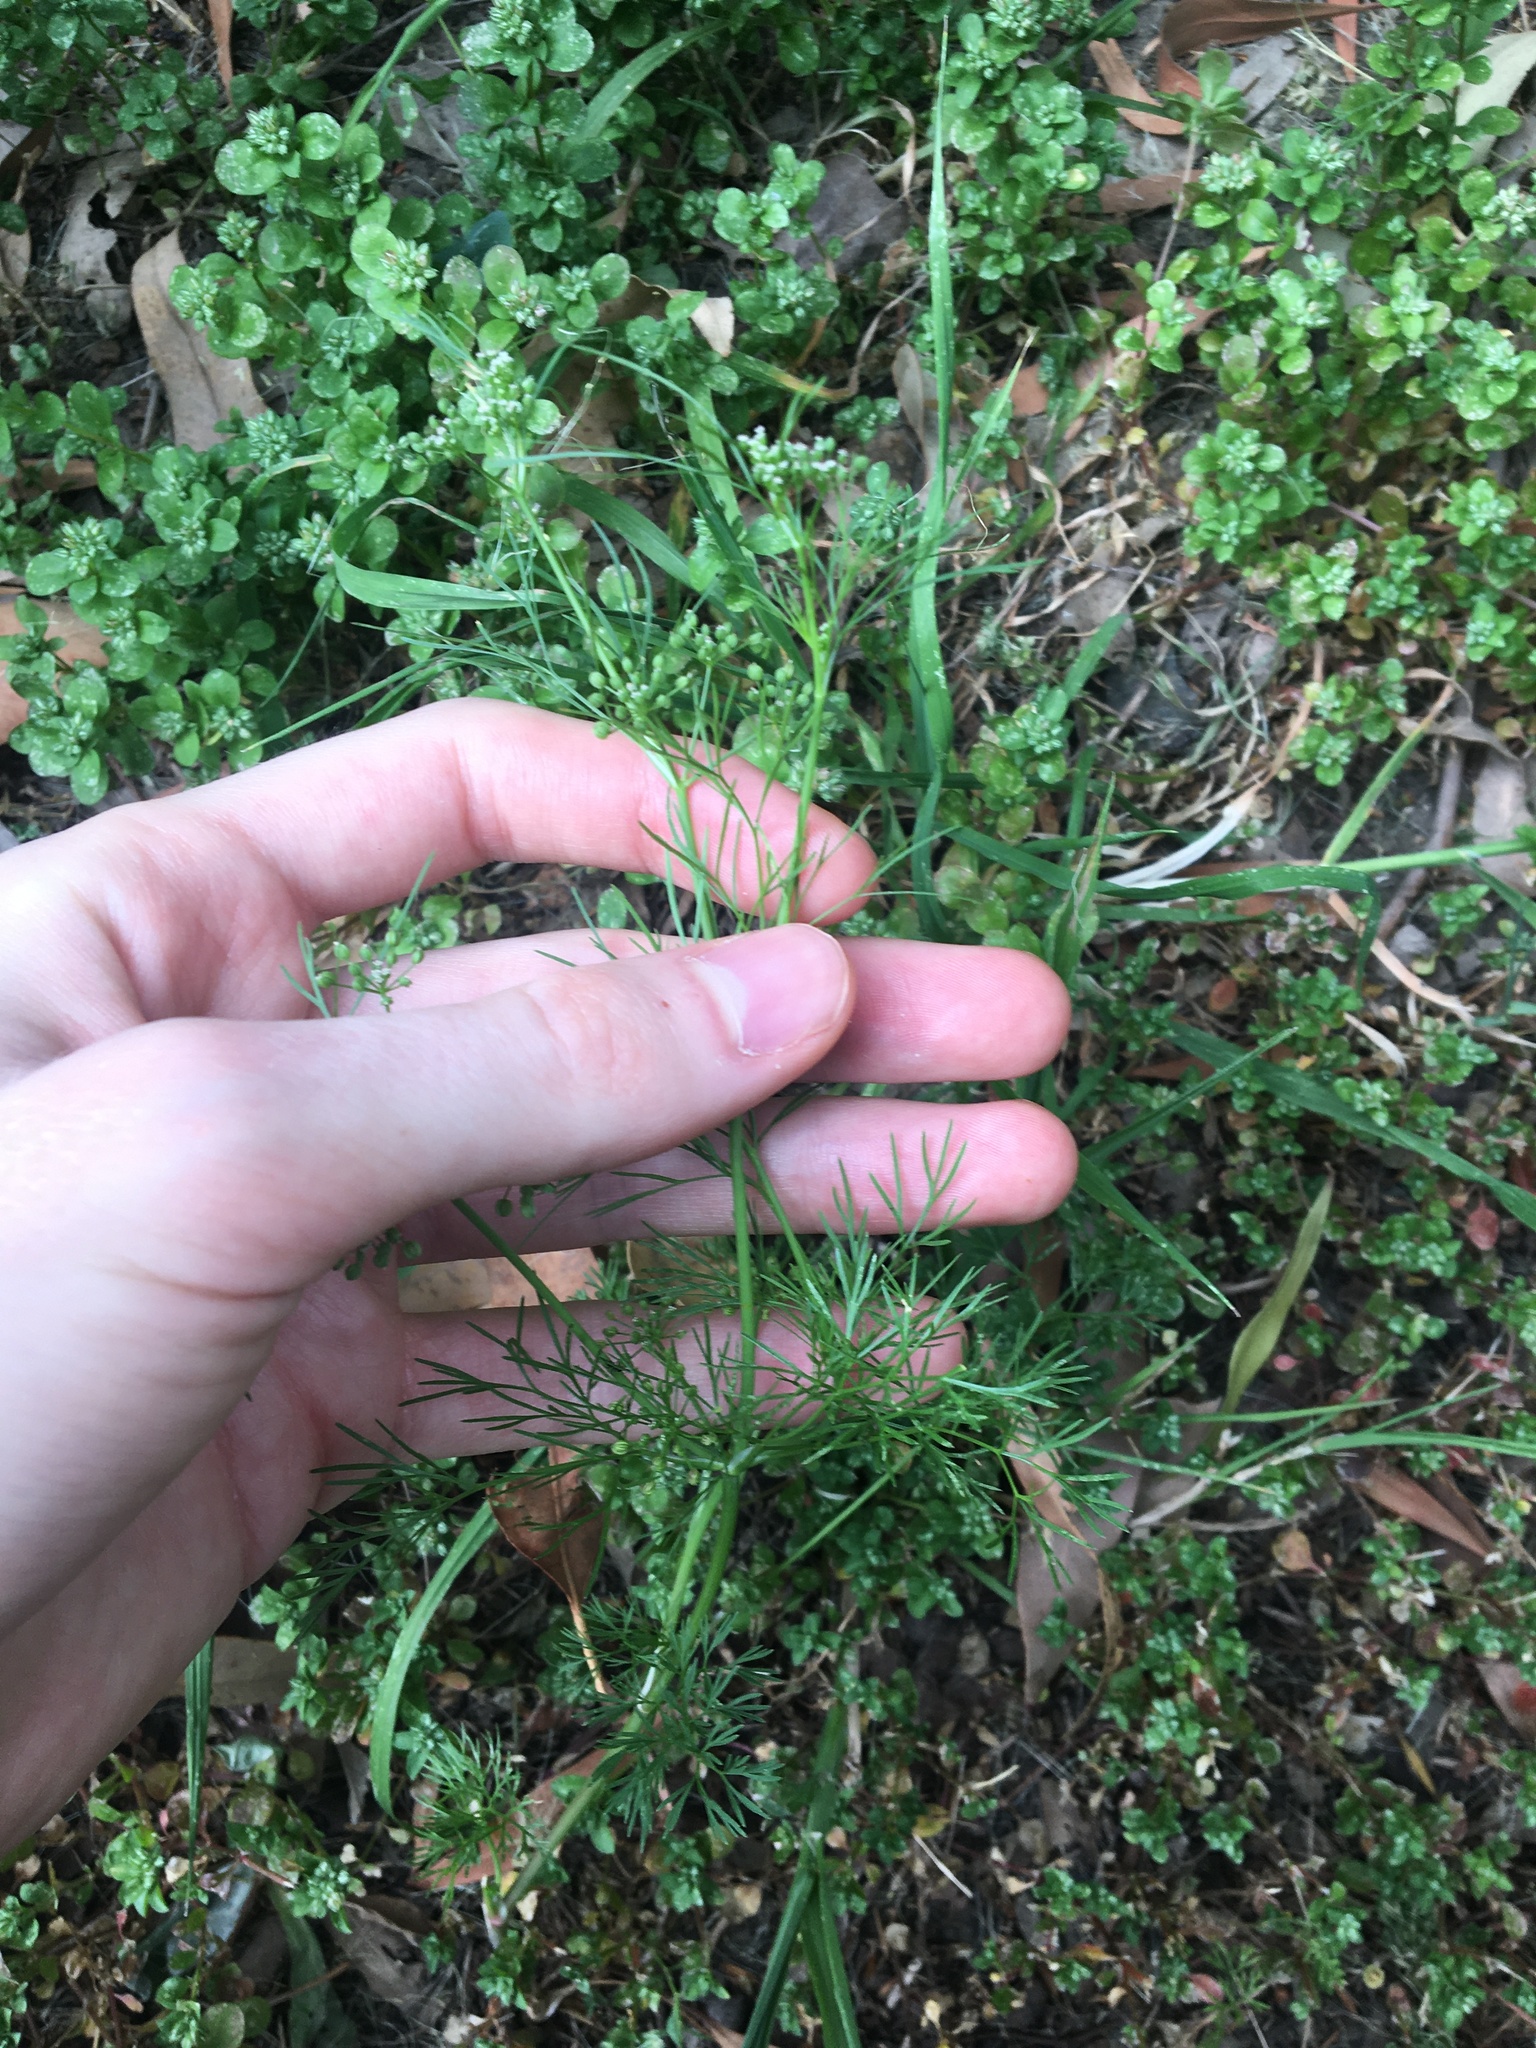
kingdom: Plantae
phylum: Tracheophyta
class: Magnoliopsida
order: Apiales
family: Apiaceae
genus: Cyclospermum
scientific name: Cyclospermum leptophyllum
